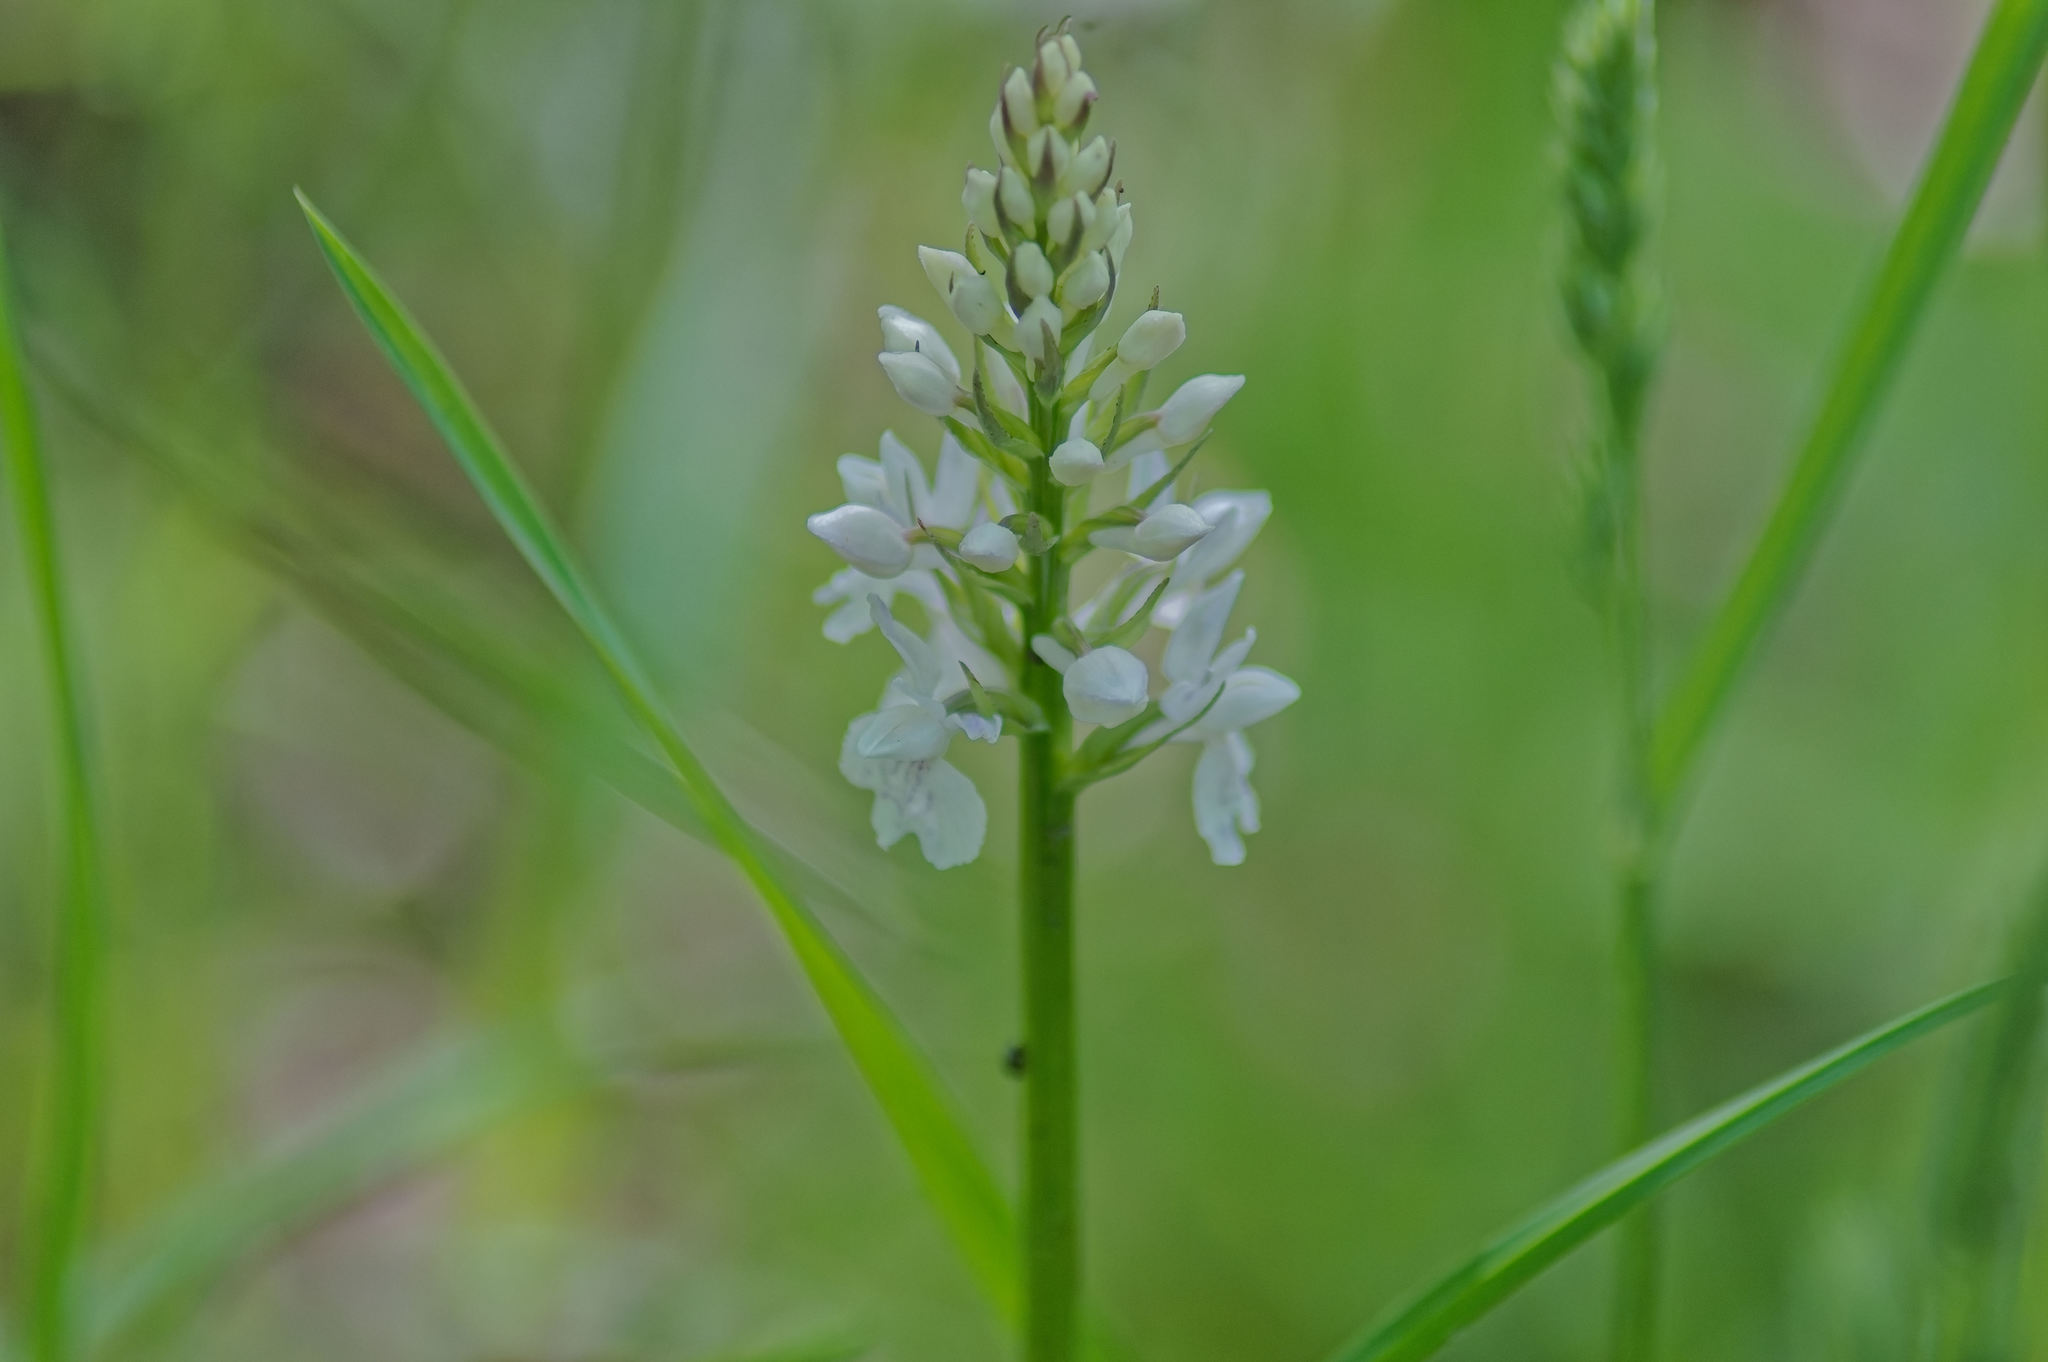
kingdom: Plantae
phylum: Tracheophyta
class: Liliopsida
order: Asparagales
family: Orchidaceae
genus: Dactylorhiza
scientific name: Dactylorhiza maculata
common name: Heath spotted-orchid
